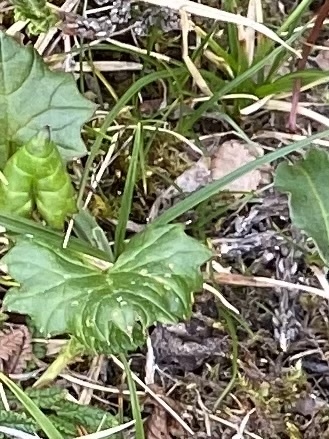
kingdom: Plantae
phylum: Tracheophyta
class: Magnoliopsida
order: Asterales
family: Asteraceae
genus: Petasites
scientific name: Petasites frigidus
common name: Arctic butterbur
